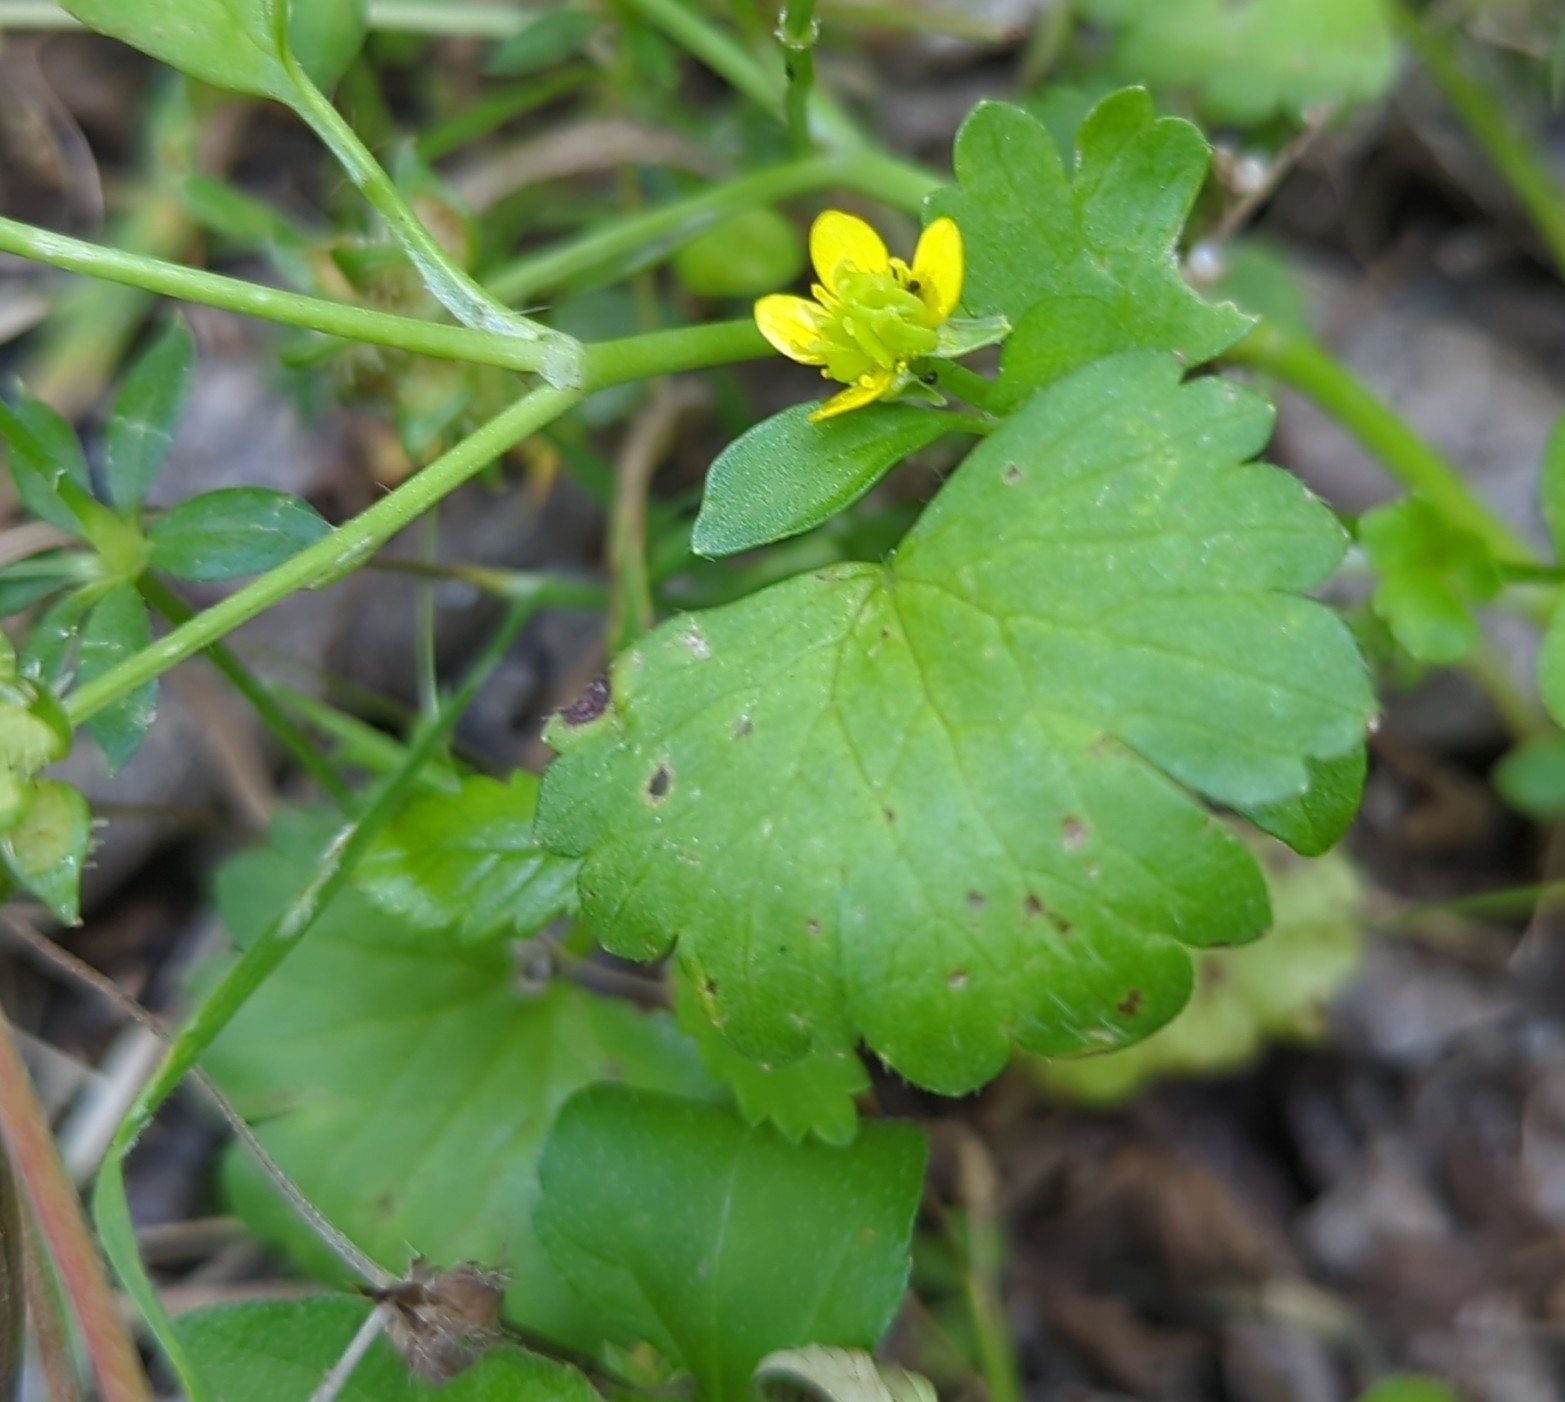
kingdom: Plantae
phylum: Tracheophyta
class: Magnoliopsida
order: Ranunculales
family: Ranunculaceae
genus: Ranunculus
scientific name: Ranunculus muricatus
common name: Rough-fruited buttercup
